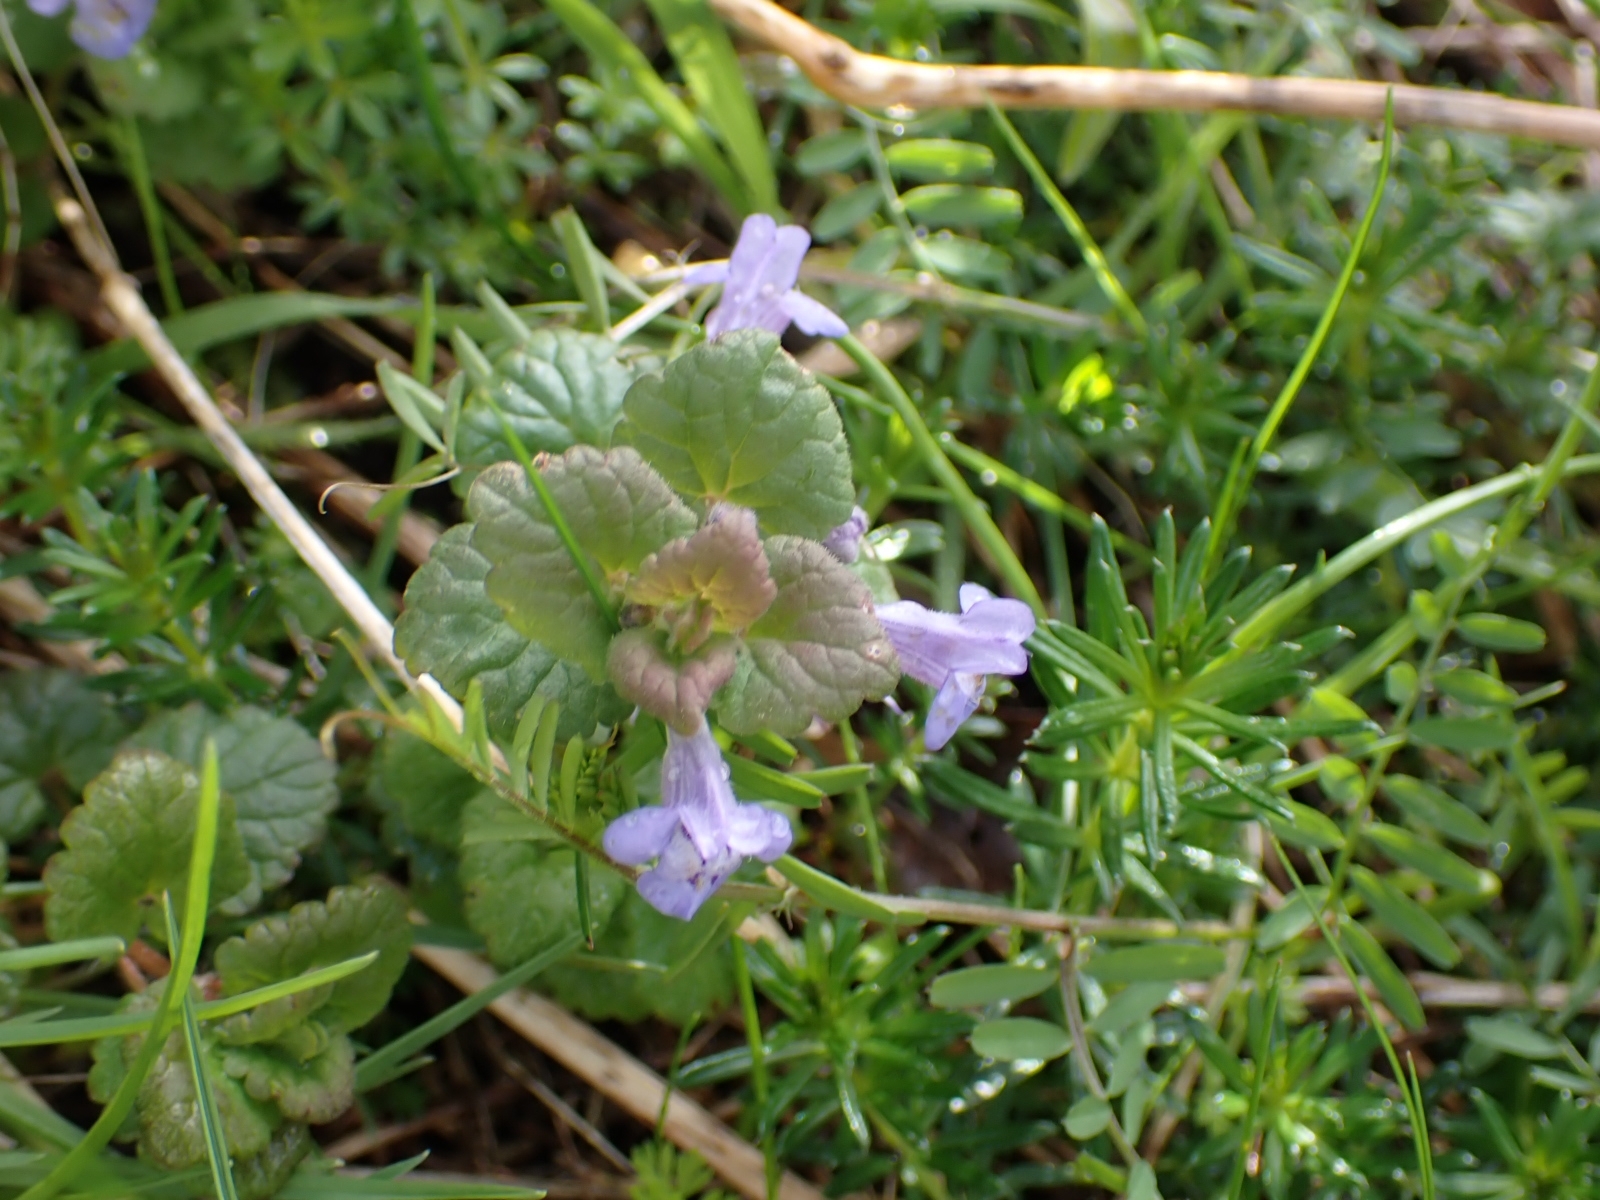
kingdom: Plantae
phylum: Tracheophyta
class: Magnoliopsida
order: Lamiales
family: Lamiaceae
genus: Glechoma
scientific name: Glechoma hederacea
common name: Ground ivy
